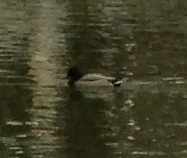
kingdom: Animalia
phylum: Chordata
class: Aves
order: Anseriformes
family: Anatidae
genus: Anas
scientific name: Anas platyrhynchos
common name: Mallard
